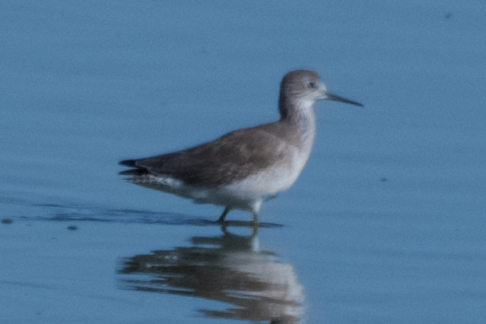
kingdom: Animalia
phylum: Chordata
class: Aves
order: Charadriiformes
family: Scolopacidae
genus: Tringa
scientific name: Tringa semipalmata
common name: Willet
